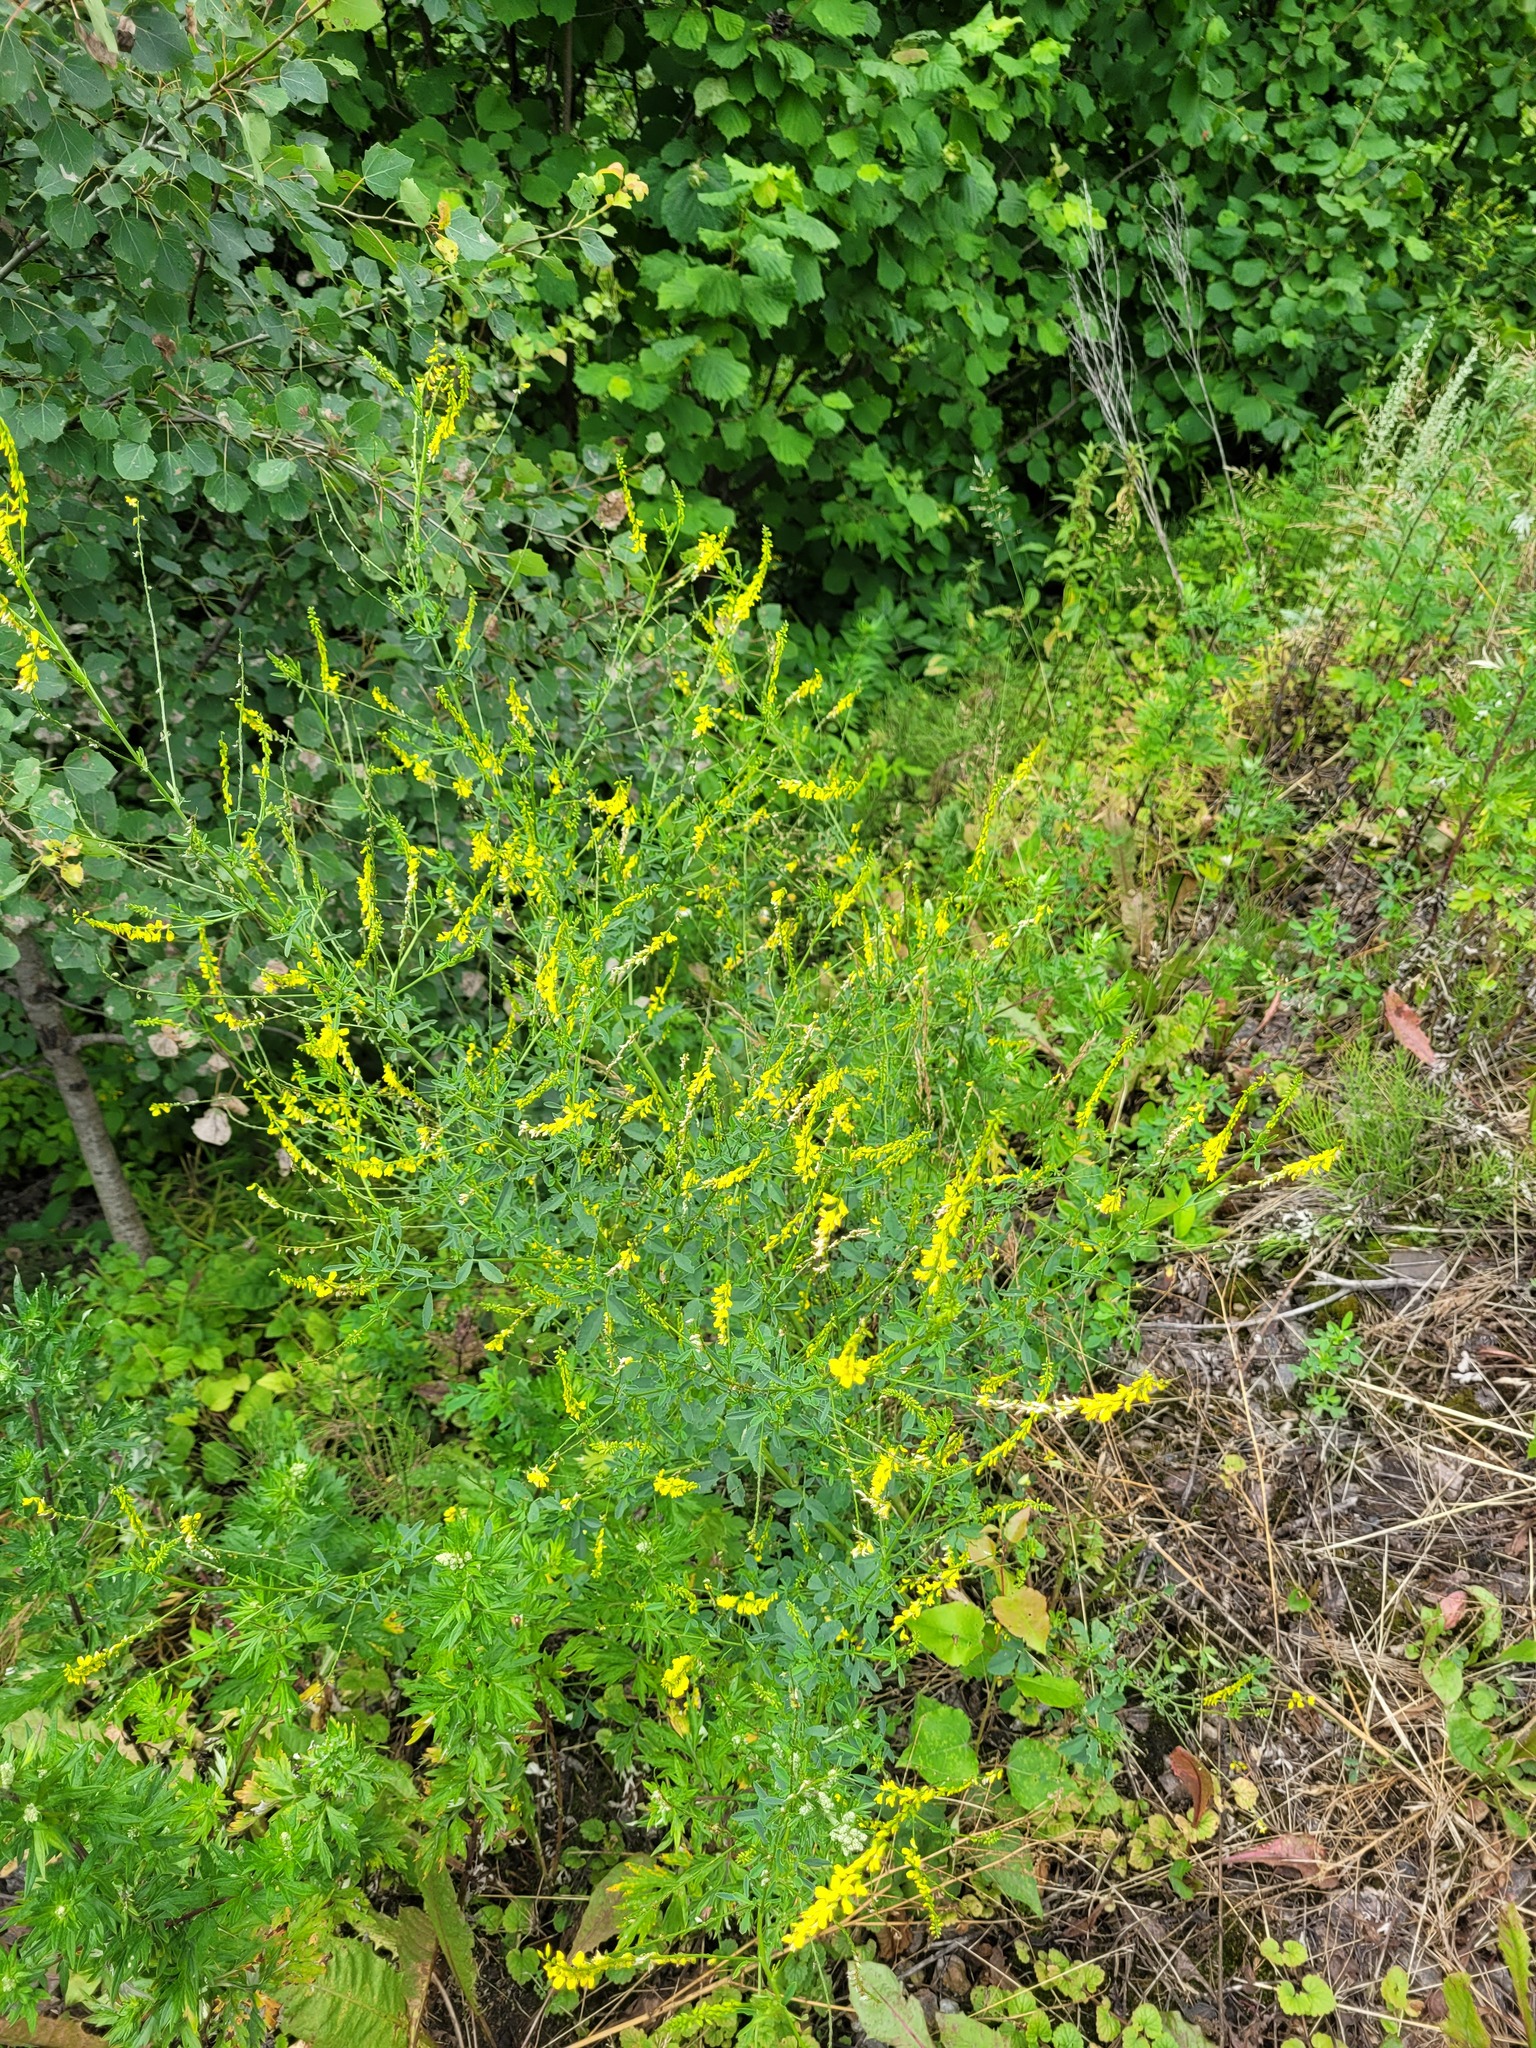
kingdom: Plantae
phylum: Tracheophyta
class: Magnoliopsida
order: Fabales
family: Fabaceae
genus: Melilotus
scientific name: Melilotus officinalis
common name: Sweetclover
